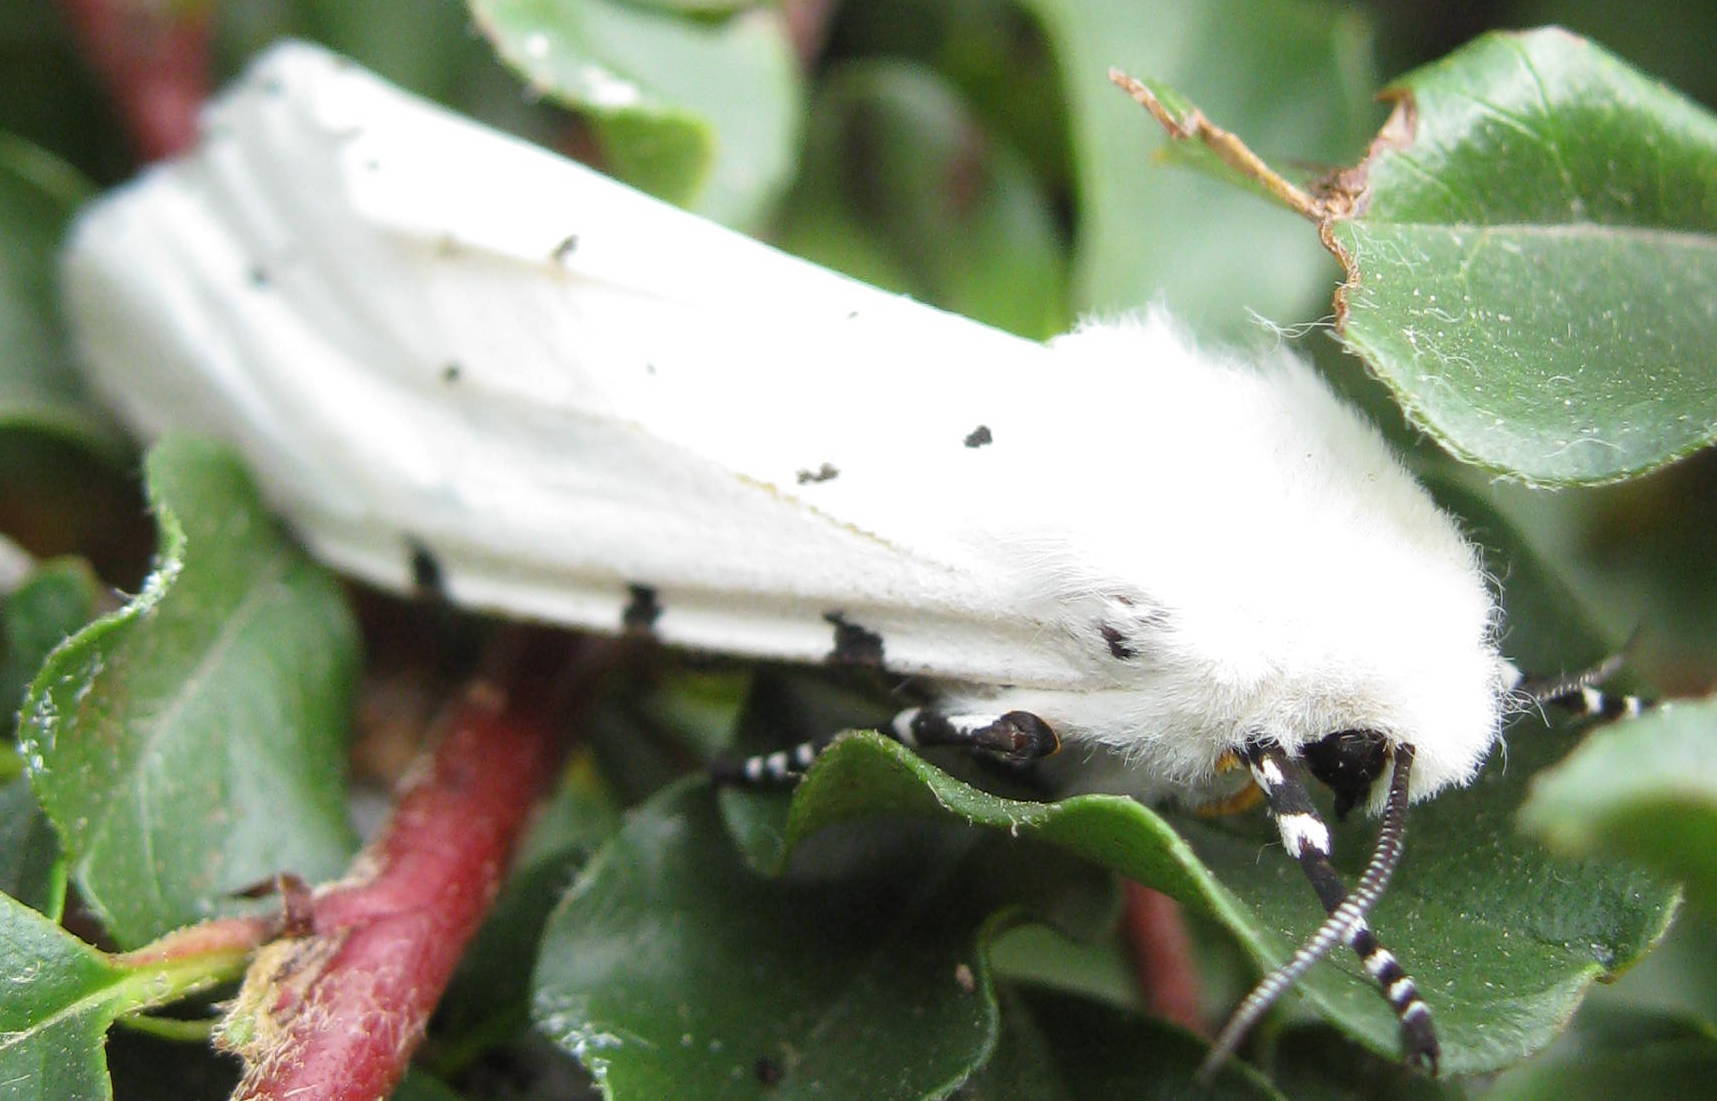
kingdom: Animalia
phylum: Arthropoda
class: Insecta
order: Lepidoptera
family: Erebidae
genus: Estigmene
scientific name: Estigmene acrea
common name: Salt marsh moth
